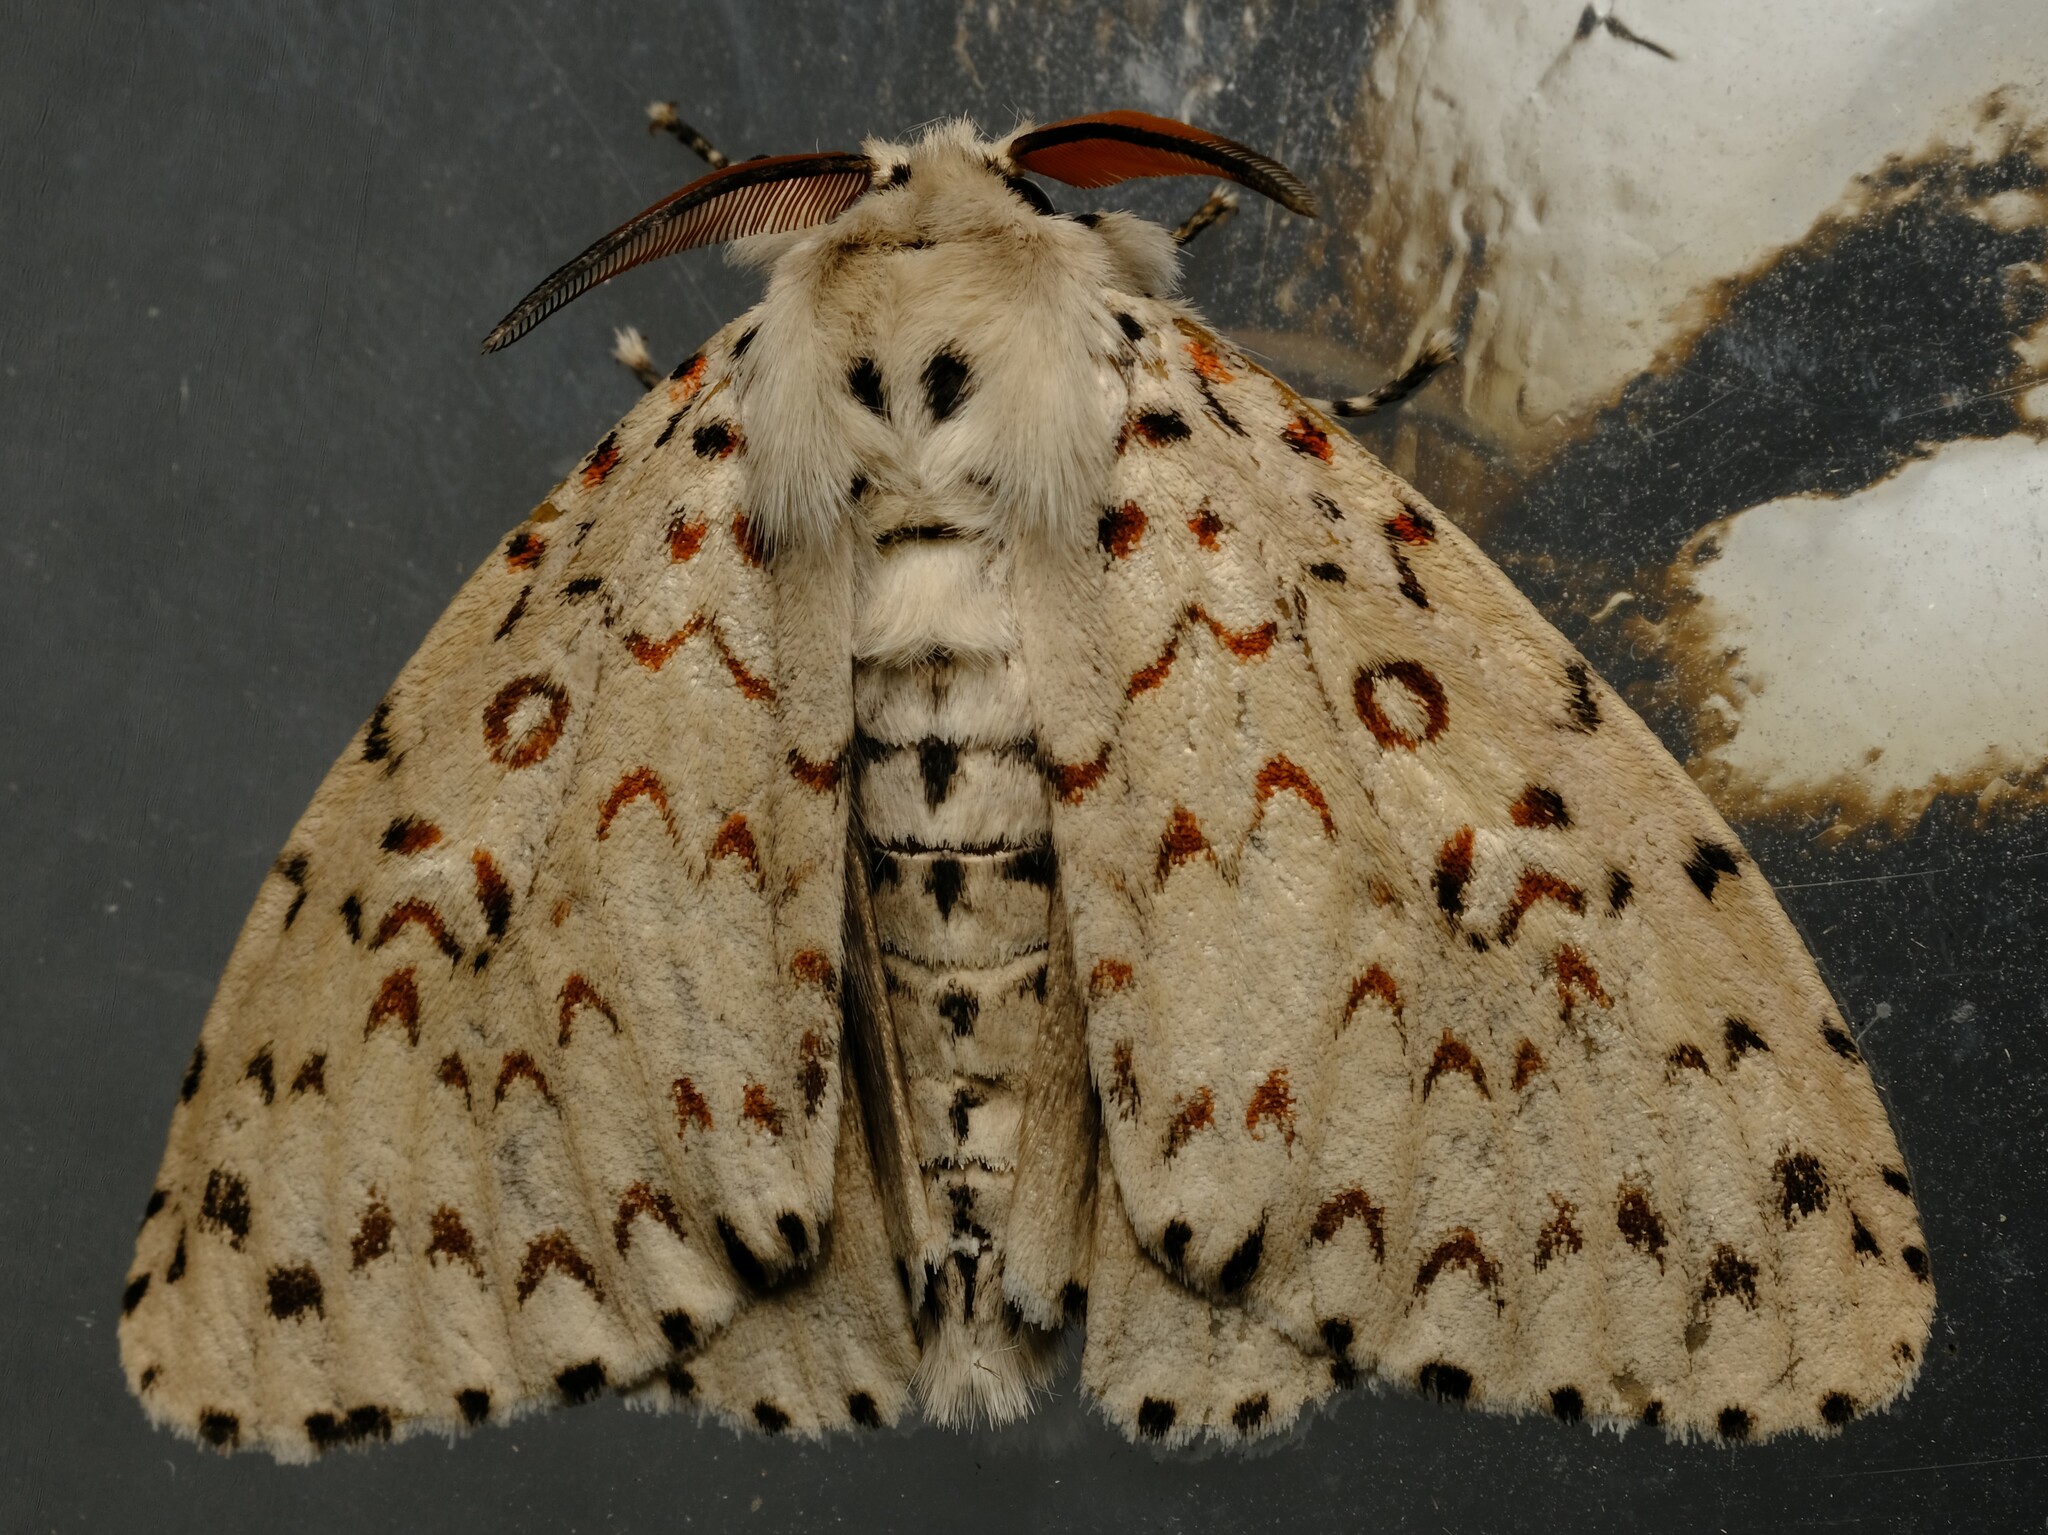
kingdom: Animalia
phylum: Arthropoda
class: Insecta
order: Lepidoptera
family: Erebidae
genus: Lymantria
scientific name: Lymantria nephrographa
